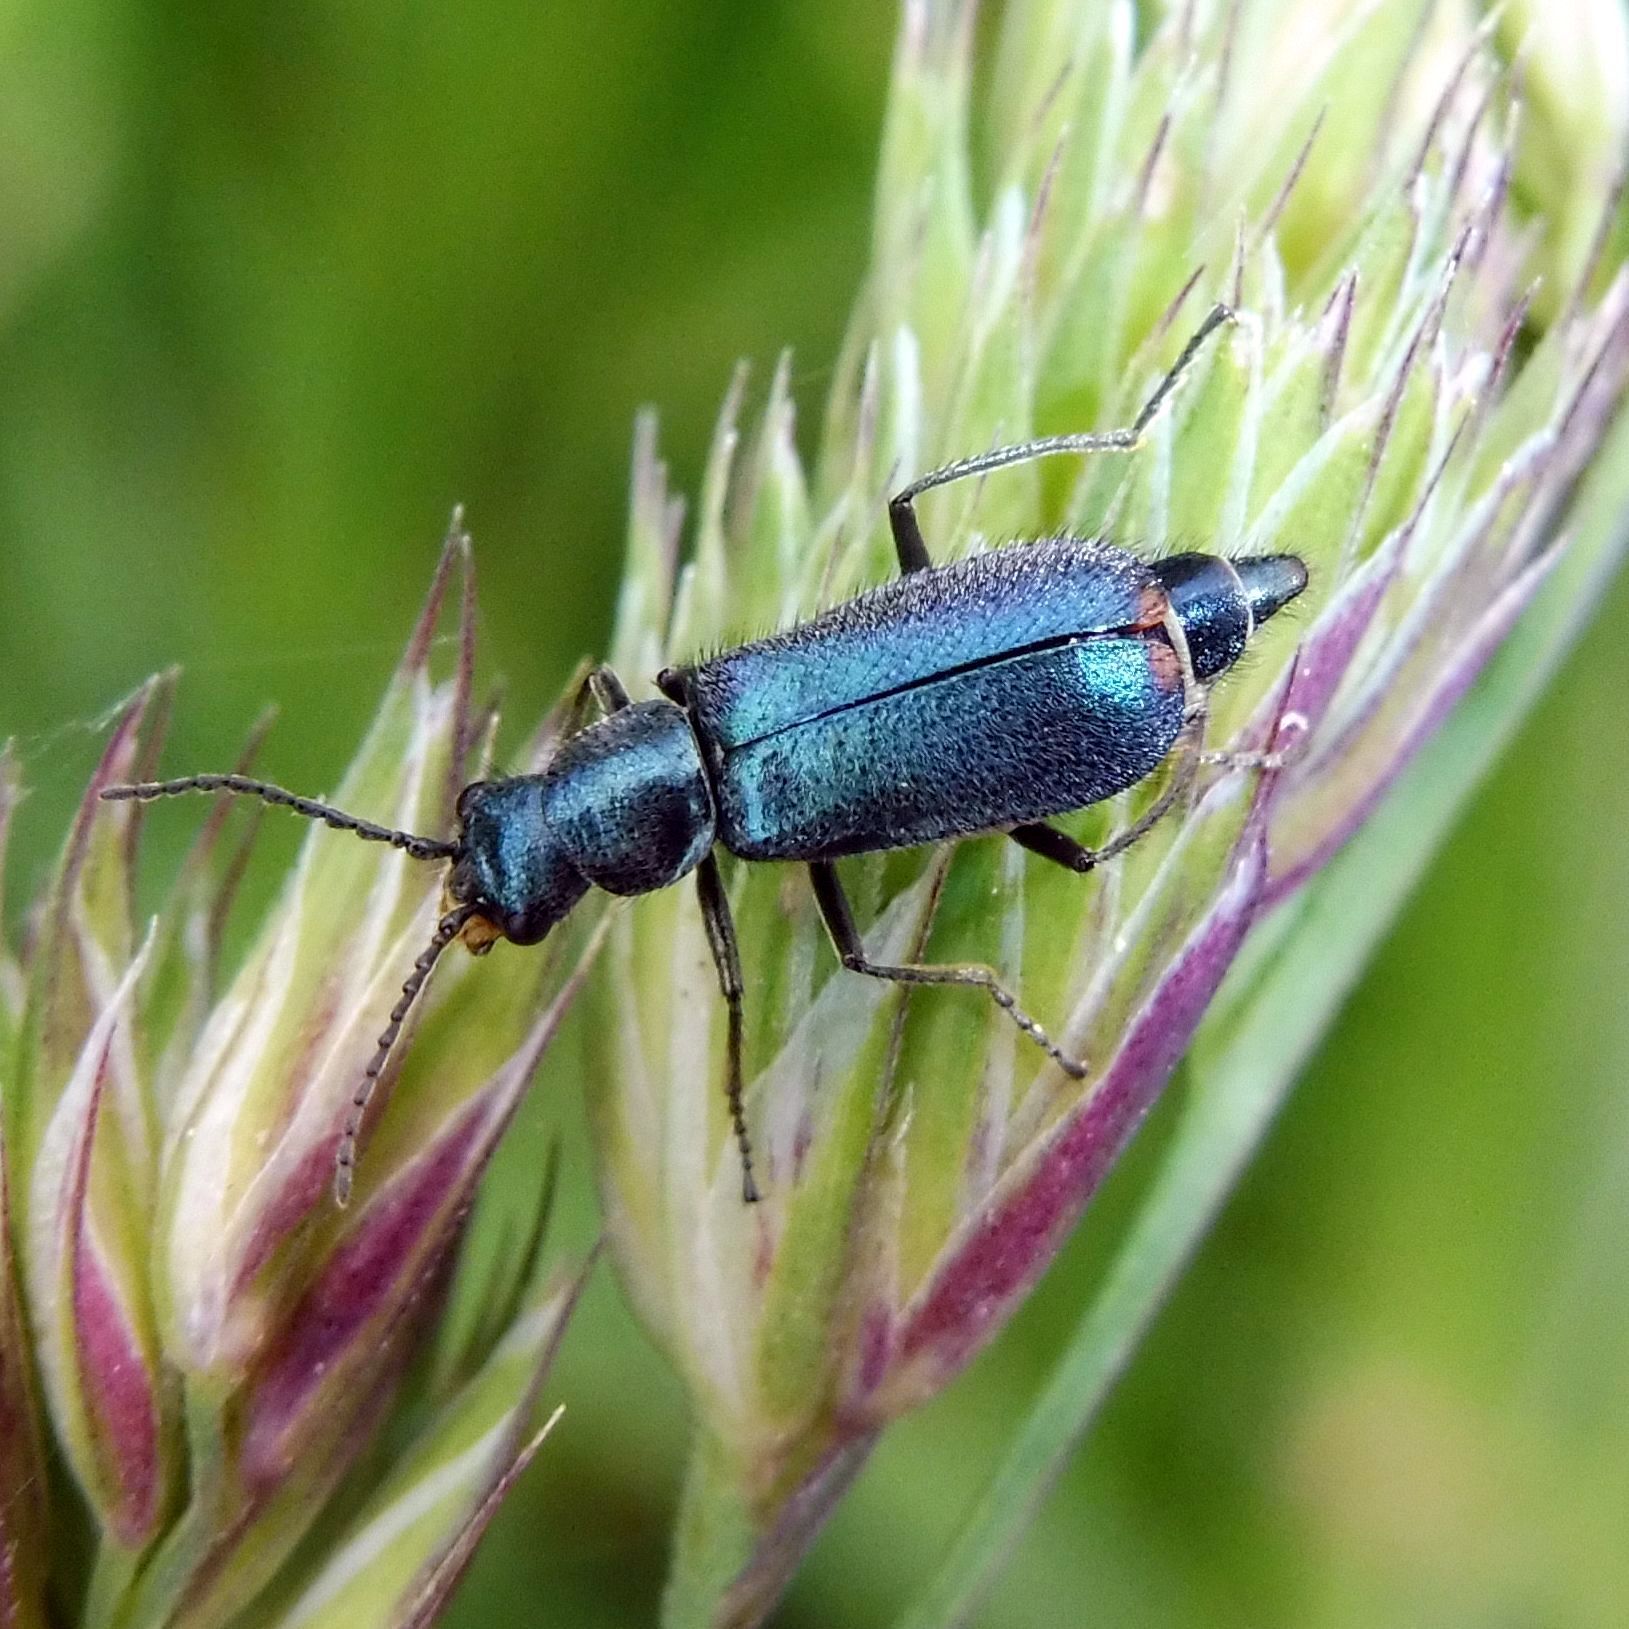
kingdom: Animalia
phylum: Arthropoda
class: Insecta
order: Coleoptera
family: Malachiidae
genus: Cordylepherus
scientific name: Cordylepherus viridis
